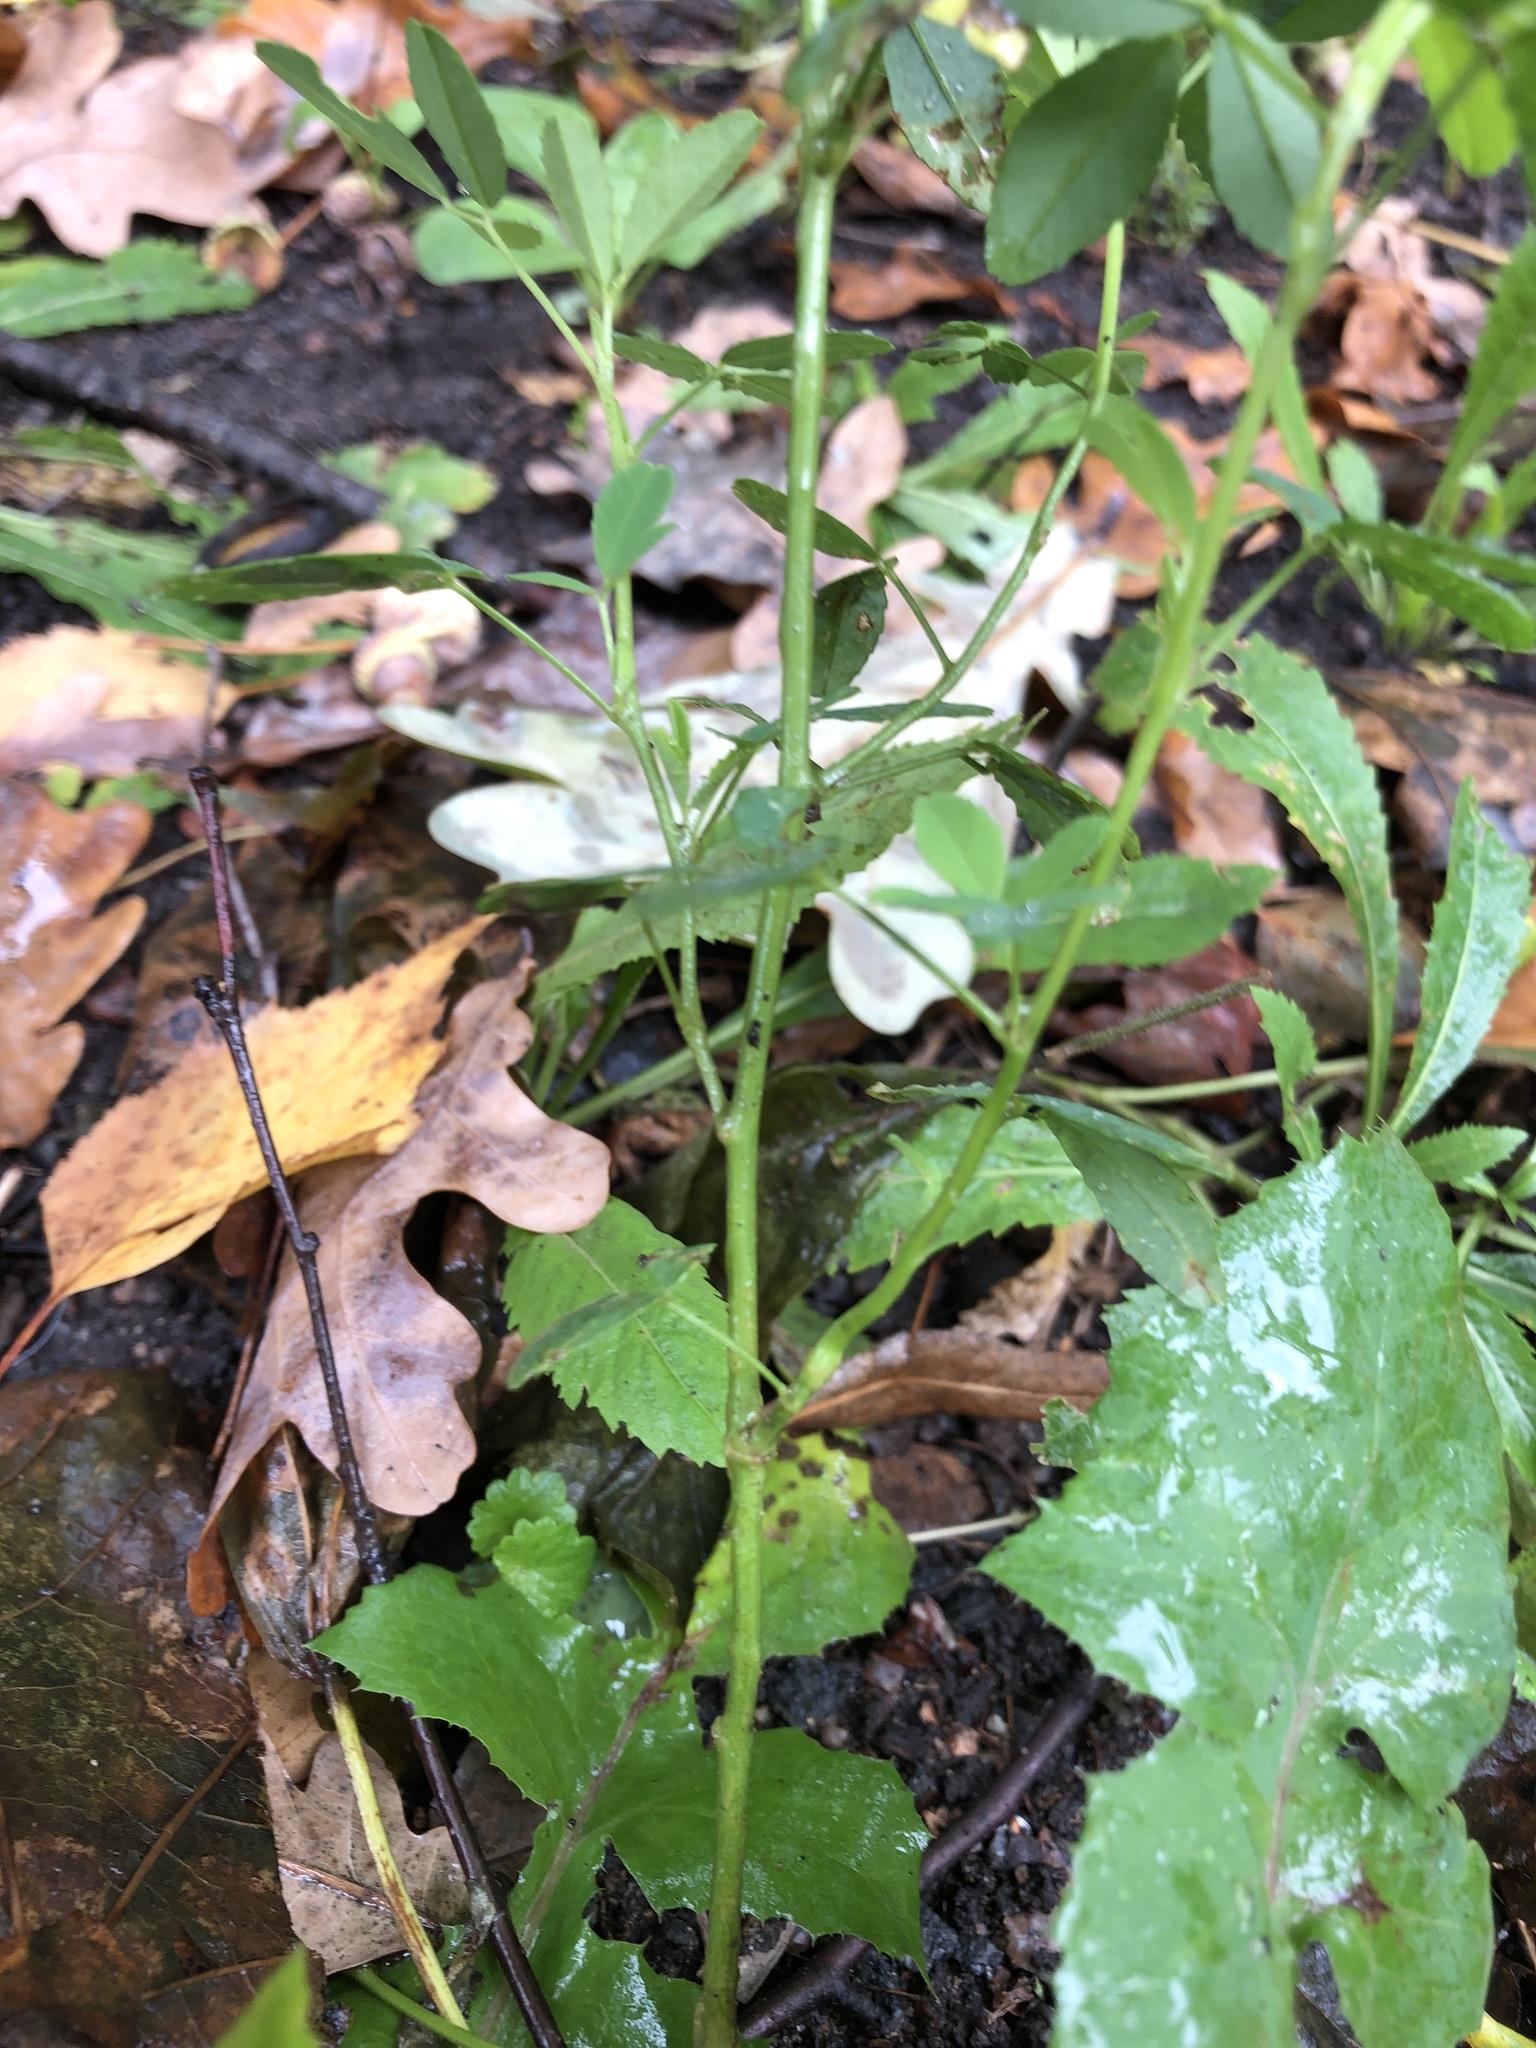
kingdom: Plantae
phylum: Tracheophyta
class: Magnoliopsida
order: Fabales
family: Fabaceae
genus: Melilotus
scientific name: Melilotus albus
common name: White melilot
